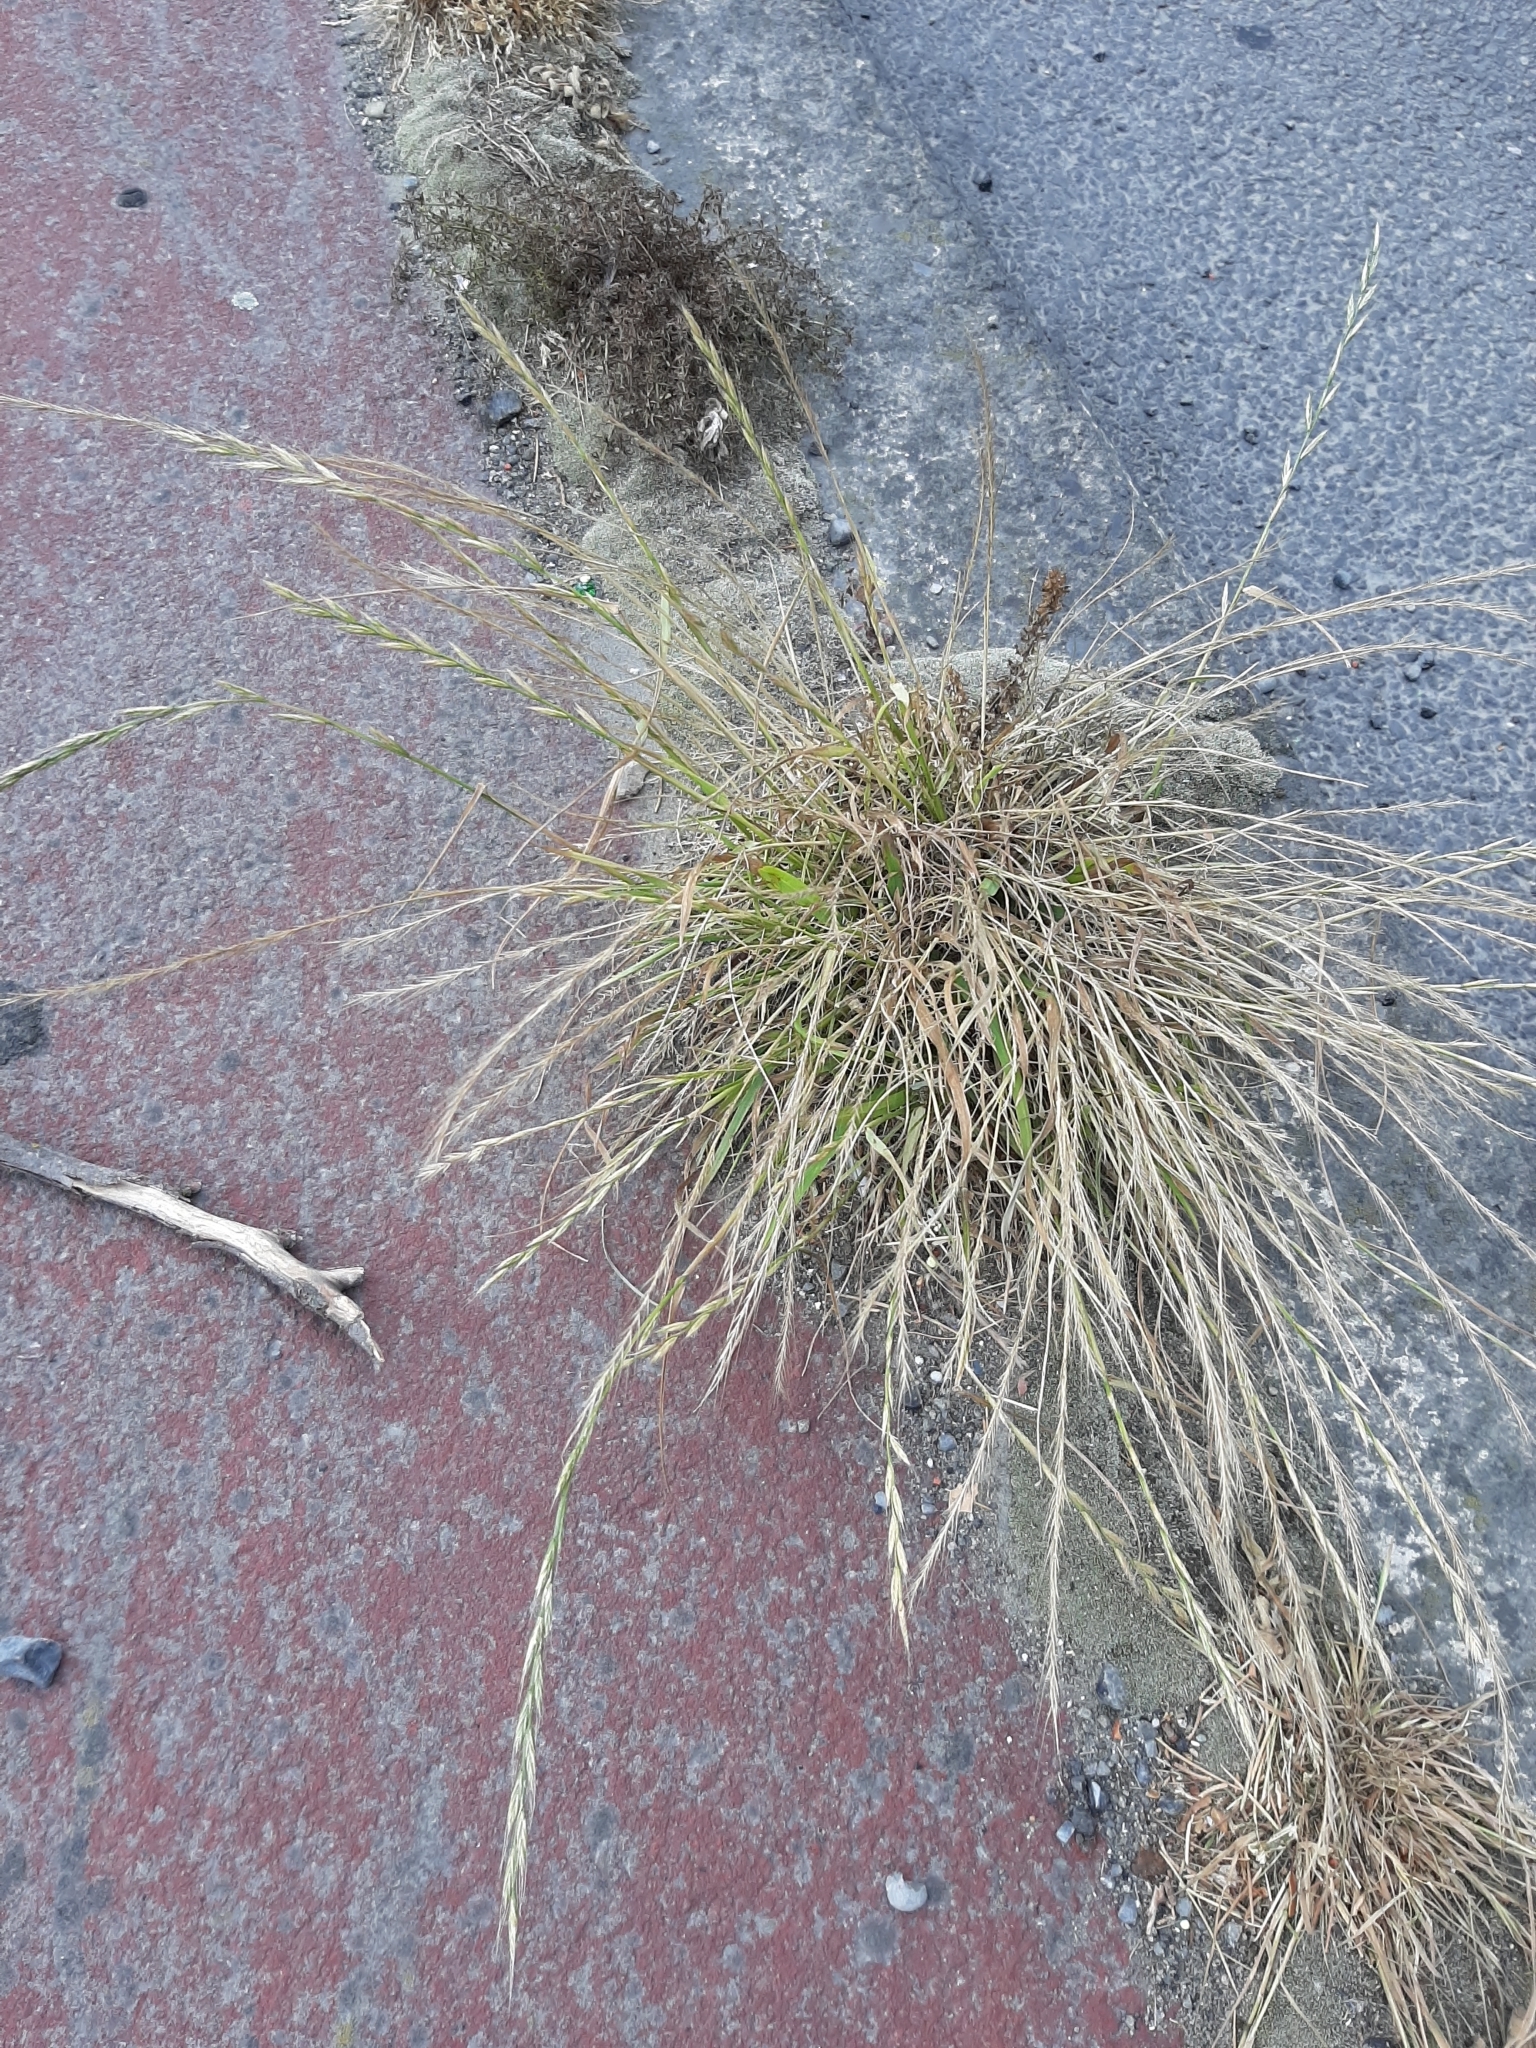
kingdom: Plantae
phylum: Tracheophyta
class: Liliopsida
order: Poales
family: Poaceae
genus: Lolium
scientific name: Lolium multiflorum
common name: Annual ryegrass
